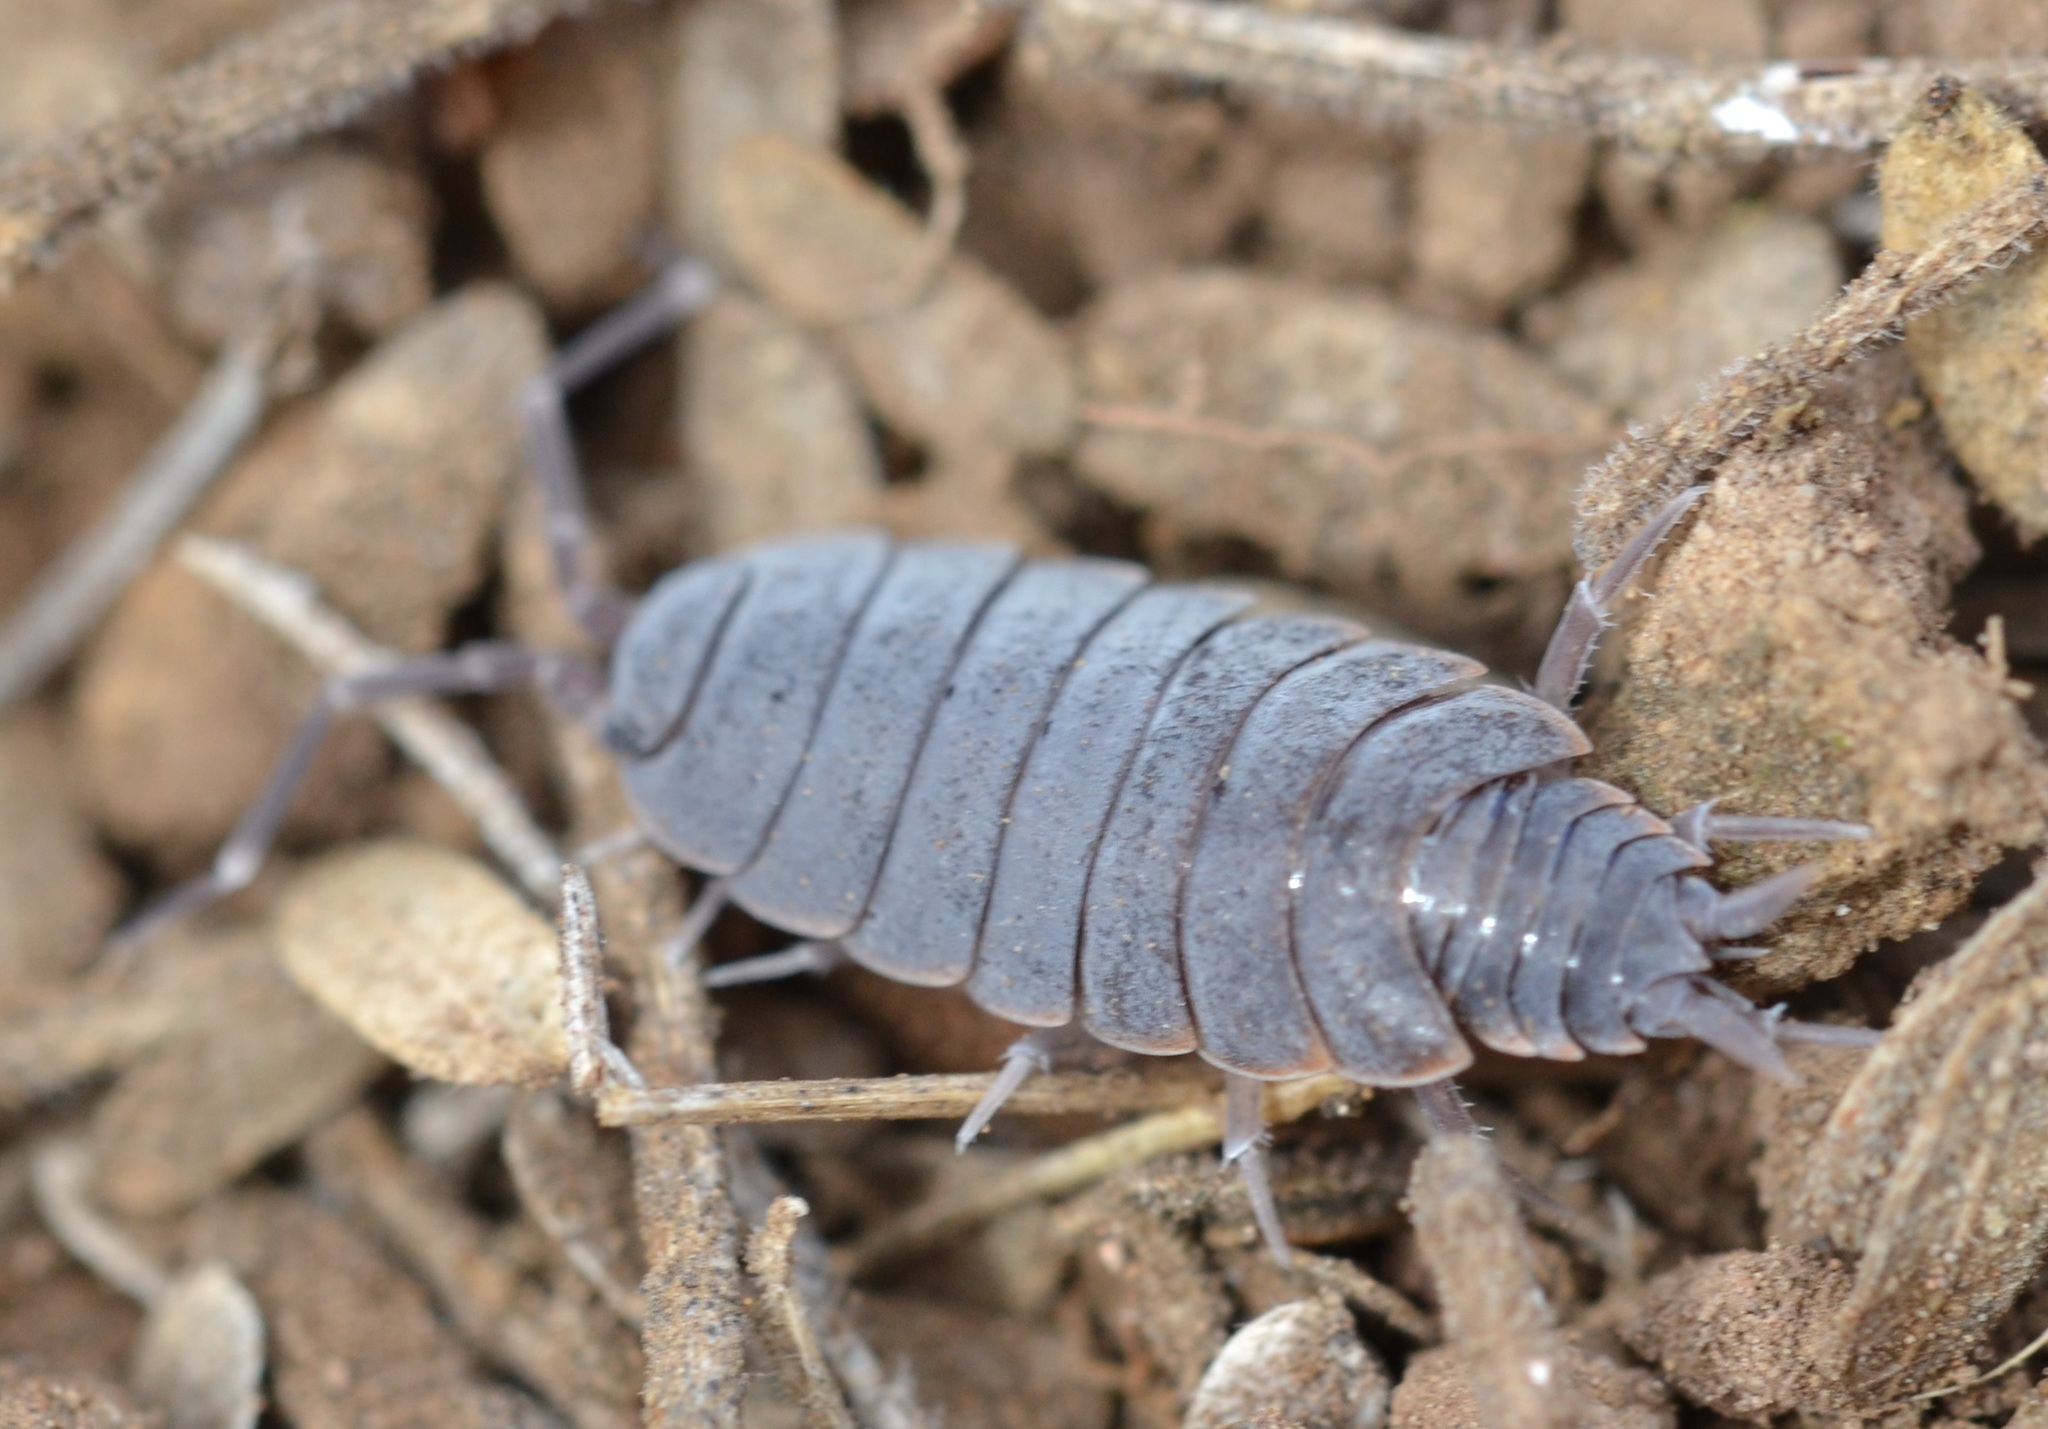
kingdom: Animalia
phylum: Arthropoda
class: Malacostraca
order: Isopoda
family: Porcellionidae
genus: Porcellionides
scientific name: Porcellionides pruinosus
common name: Plum woodlouse
